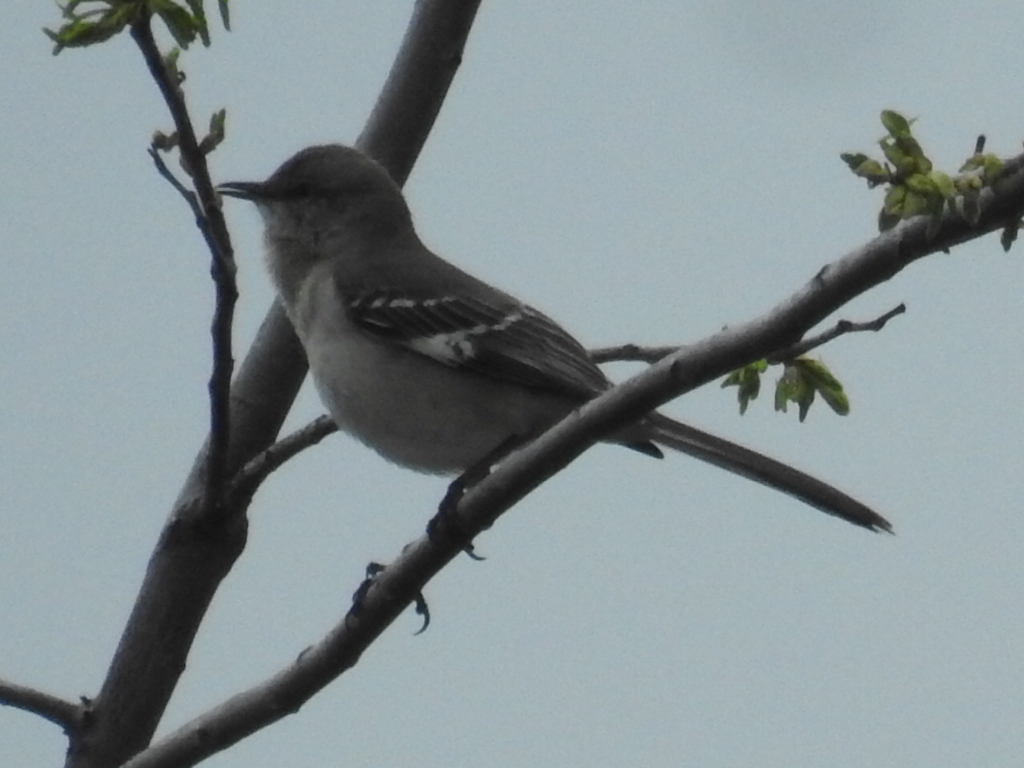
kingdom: Animalia
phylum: Chordata
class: Aves
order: Passeriformes
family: Mimidae
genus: Mimus
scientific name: Mimus polyglottos
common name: Northern mockingbird
